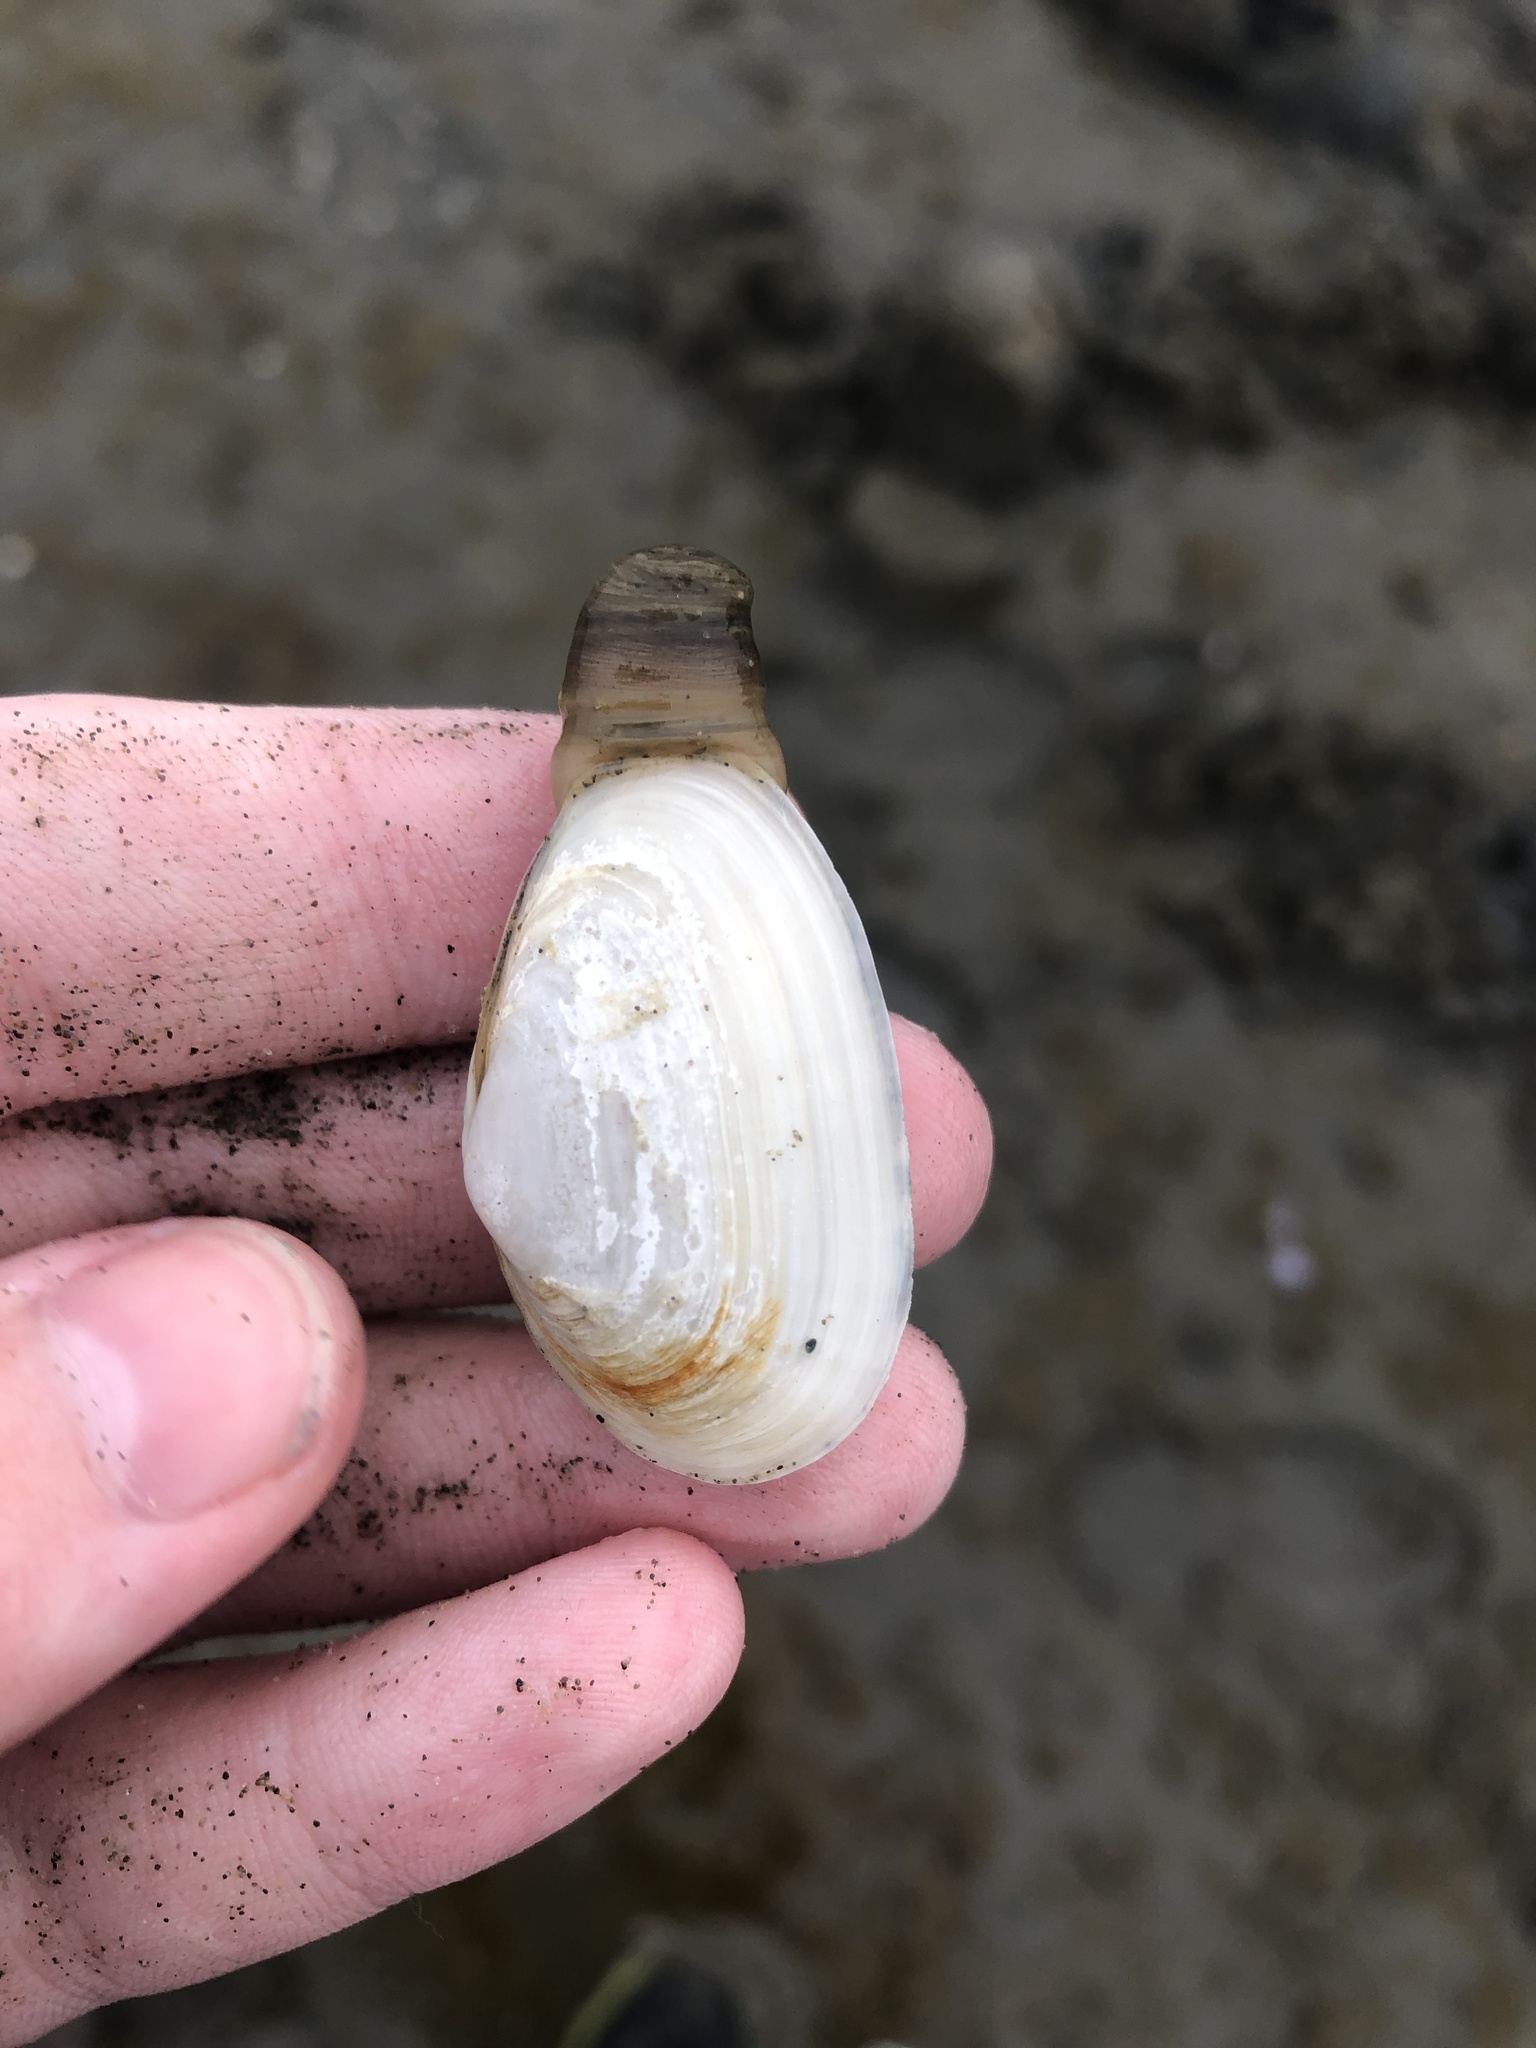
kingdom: Animalia
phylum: Mollusca
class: Bivalvia
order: Myida
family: Myidae
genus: Mya
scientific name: Mya arenaria
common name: Soft-shelled clam
